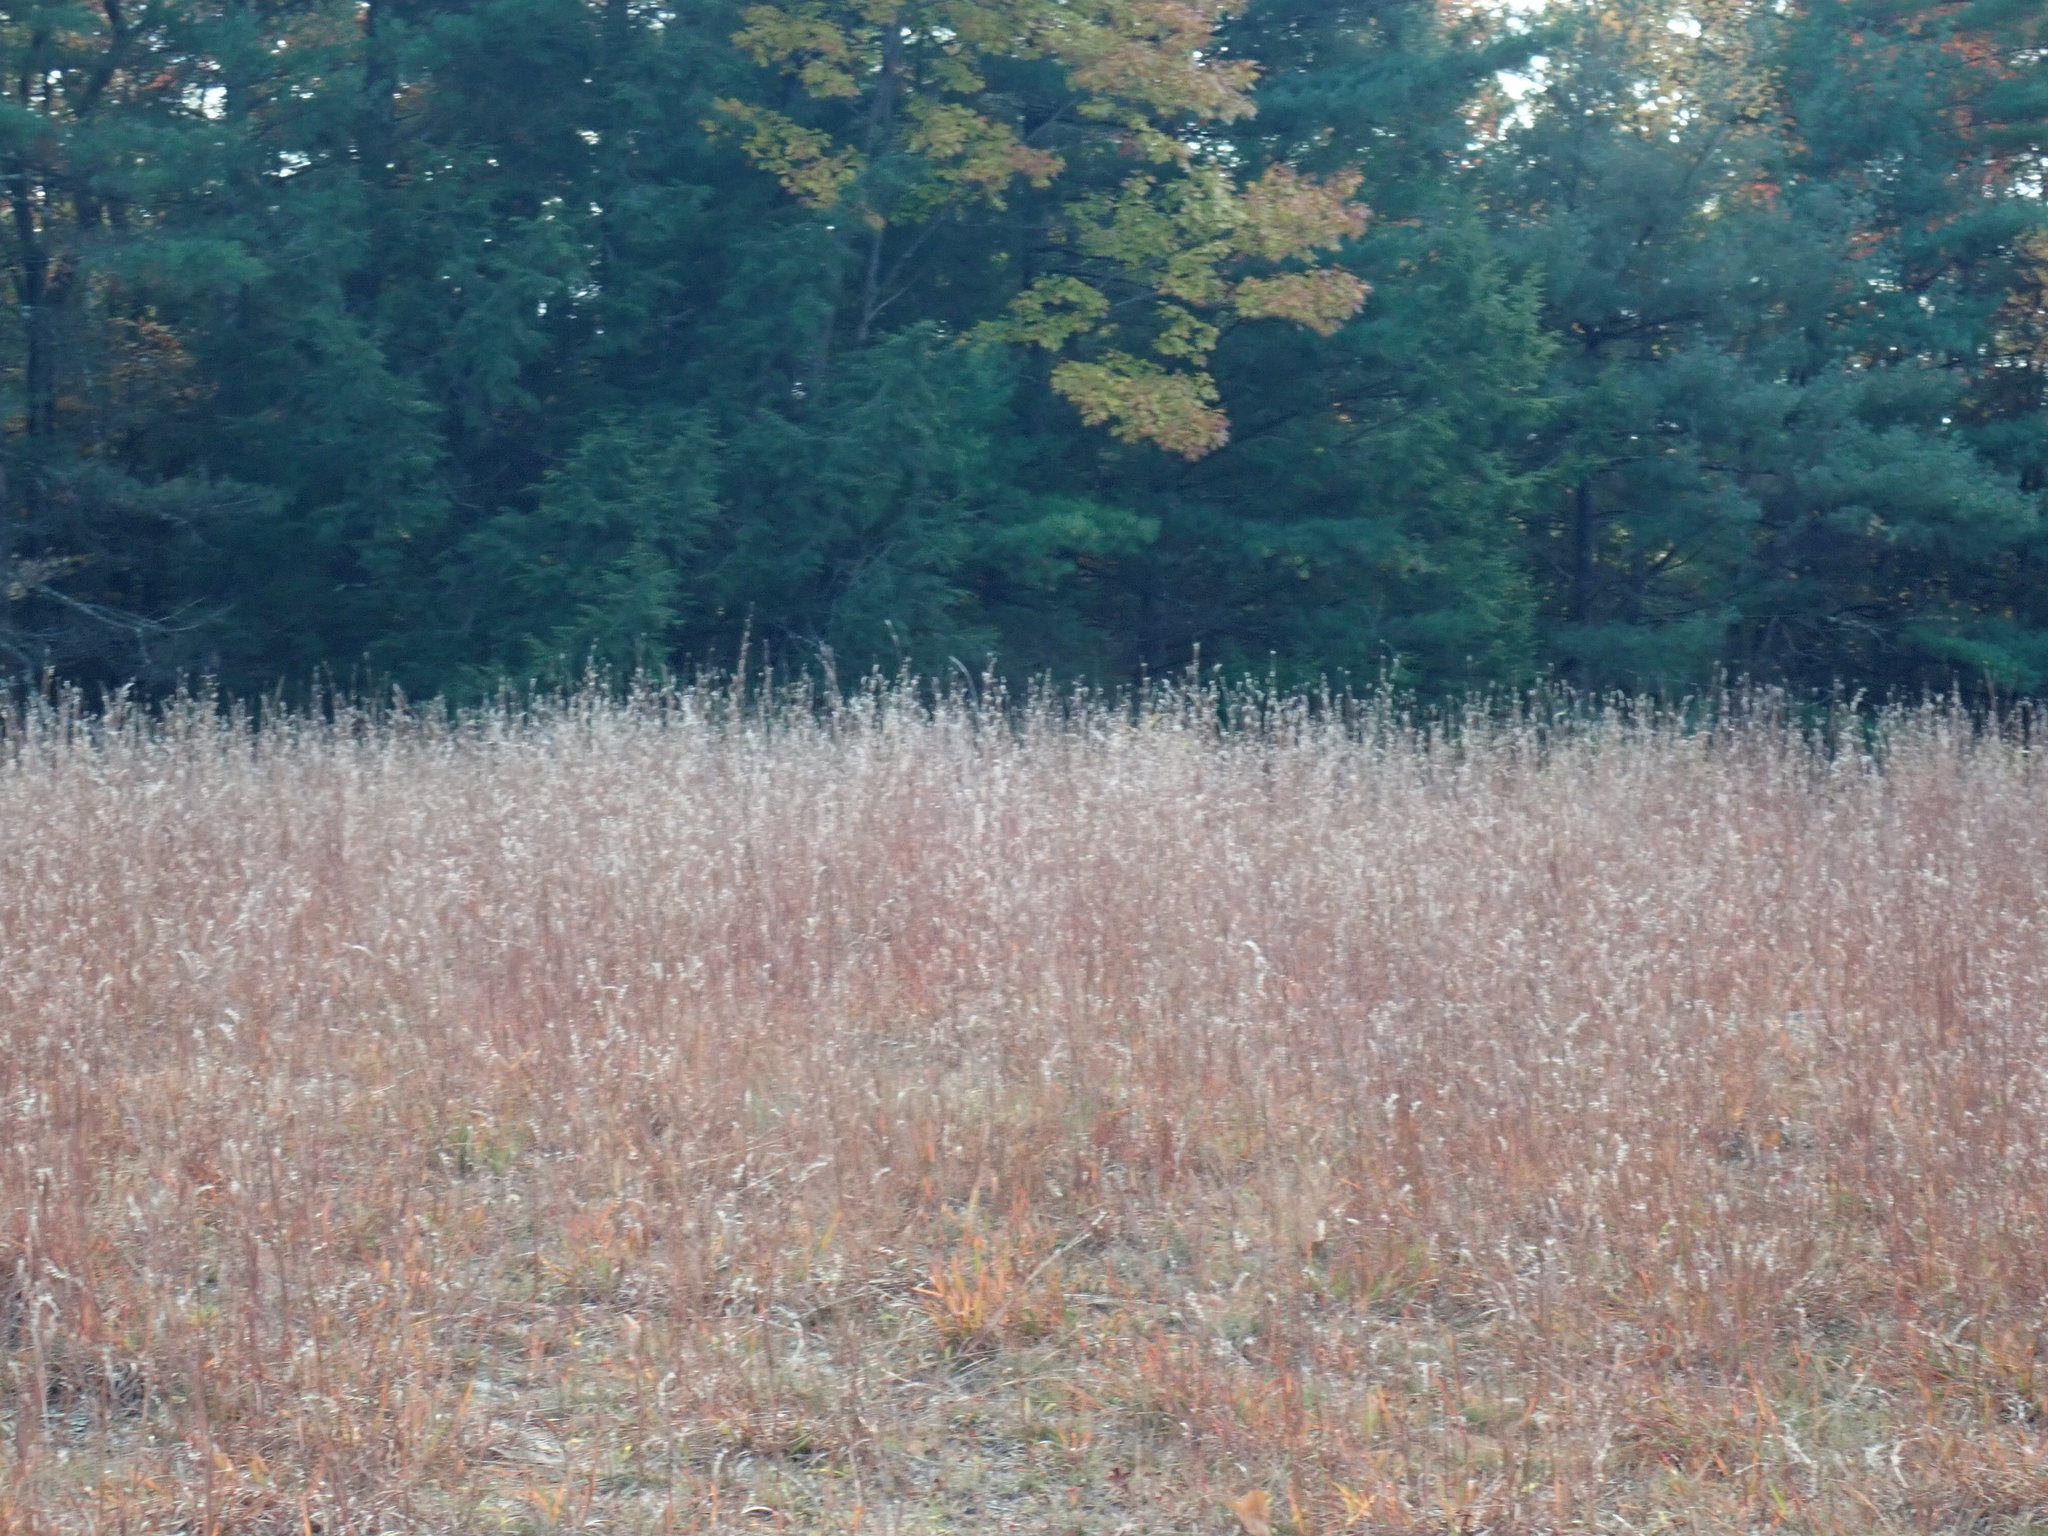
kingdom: Plantae
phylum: Tracheophyta
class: Liliopsida
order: Poales
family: Poaceae
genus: Schizachyrium
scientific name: Schizachyrium scoparium
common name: Little bluestem
